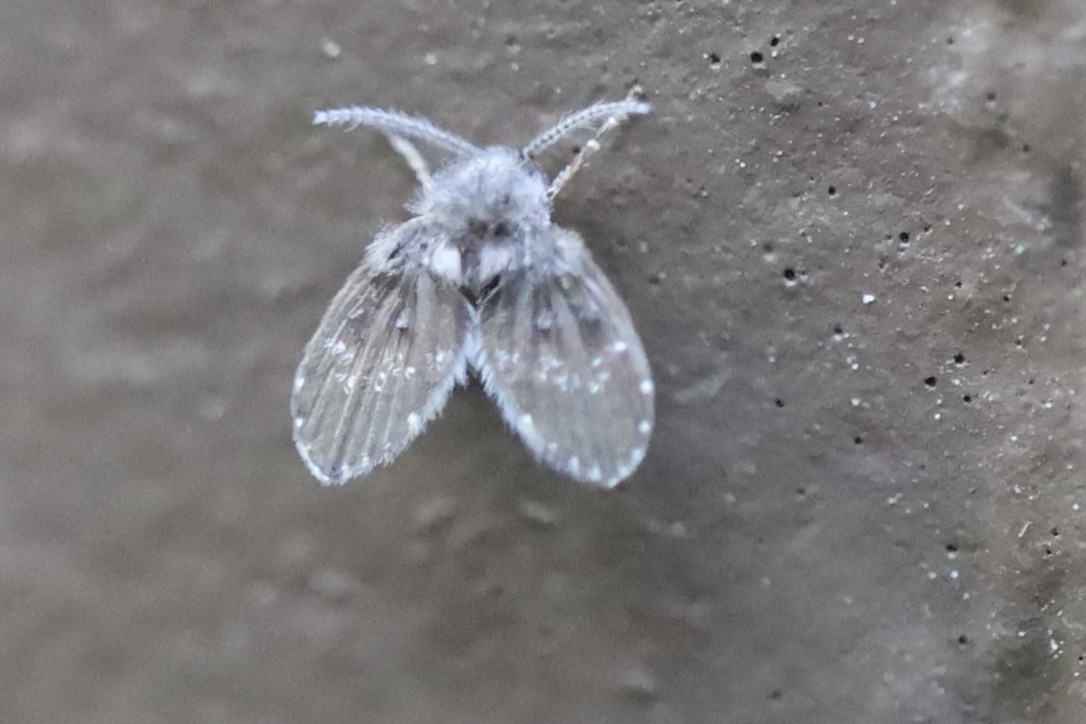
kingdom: Animalia
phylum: Arthropoda
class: Insecta
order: Diptera
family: Psychodidae
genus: Clogmia
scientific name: Clogmia albipunctatus
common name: White-spotted moth fly
